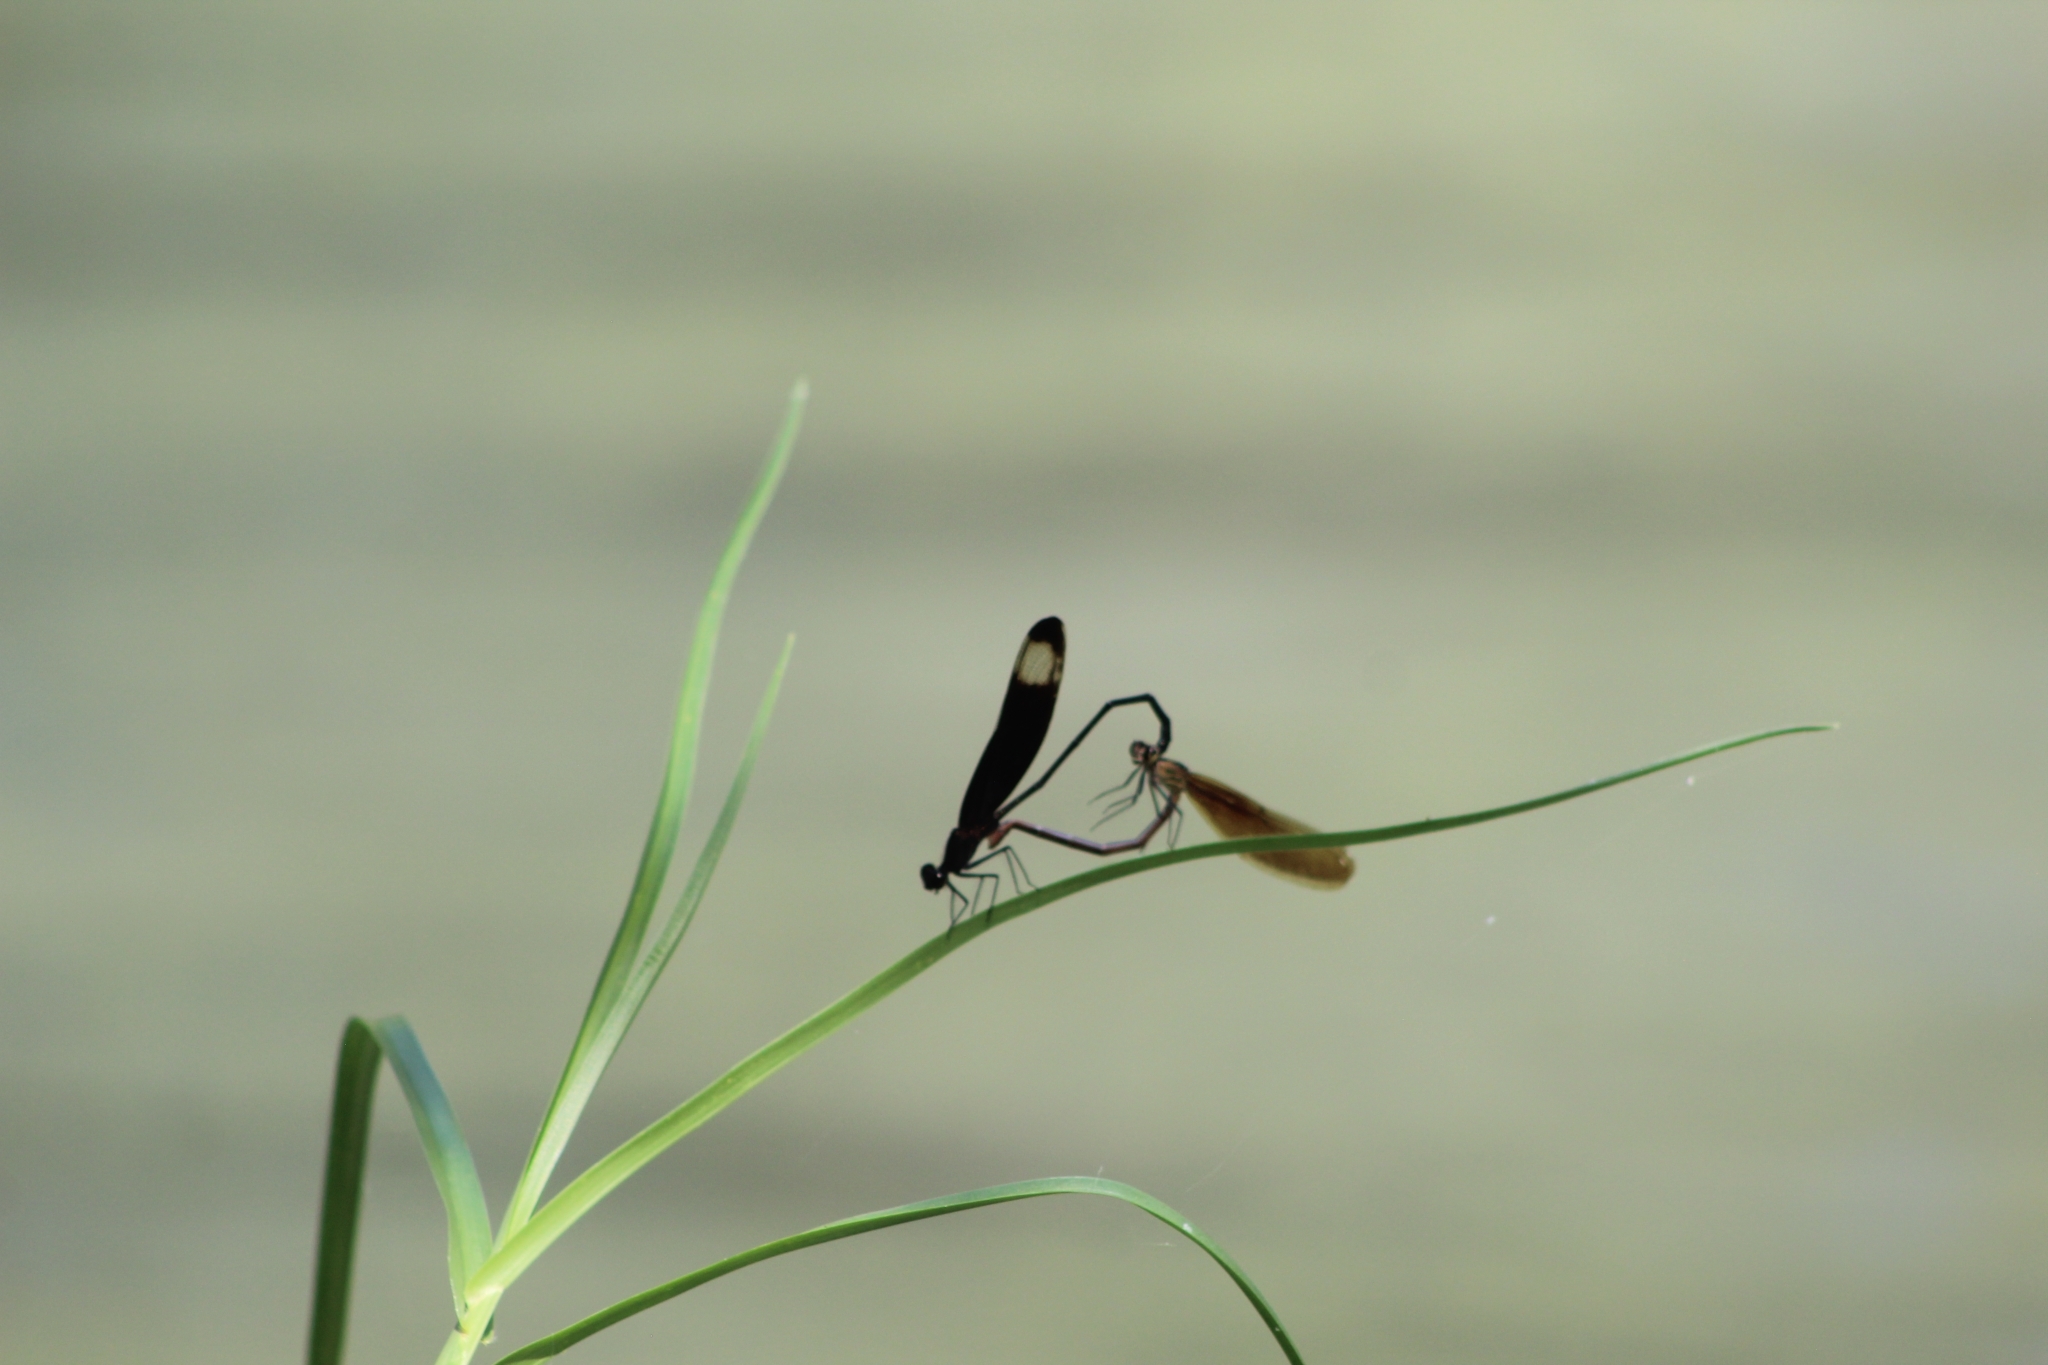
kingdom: Animalia
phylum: Arthropoda
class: Insecta
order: Odonata
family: Calopterygidae
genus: Hetaerina
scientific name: Hetaerina titia
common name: Smoky rubyspot
